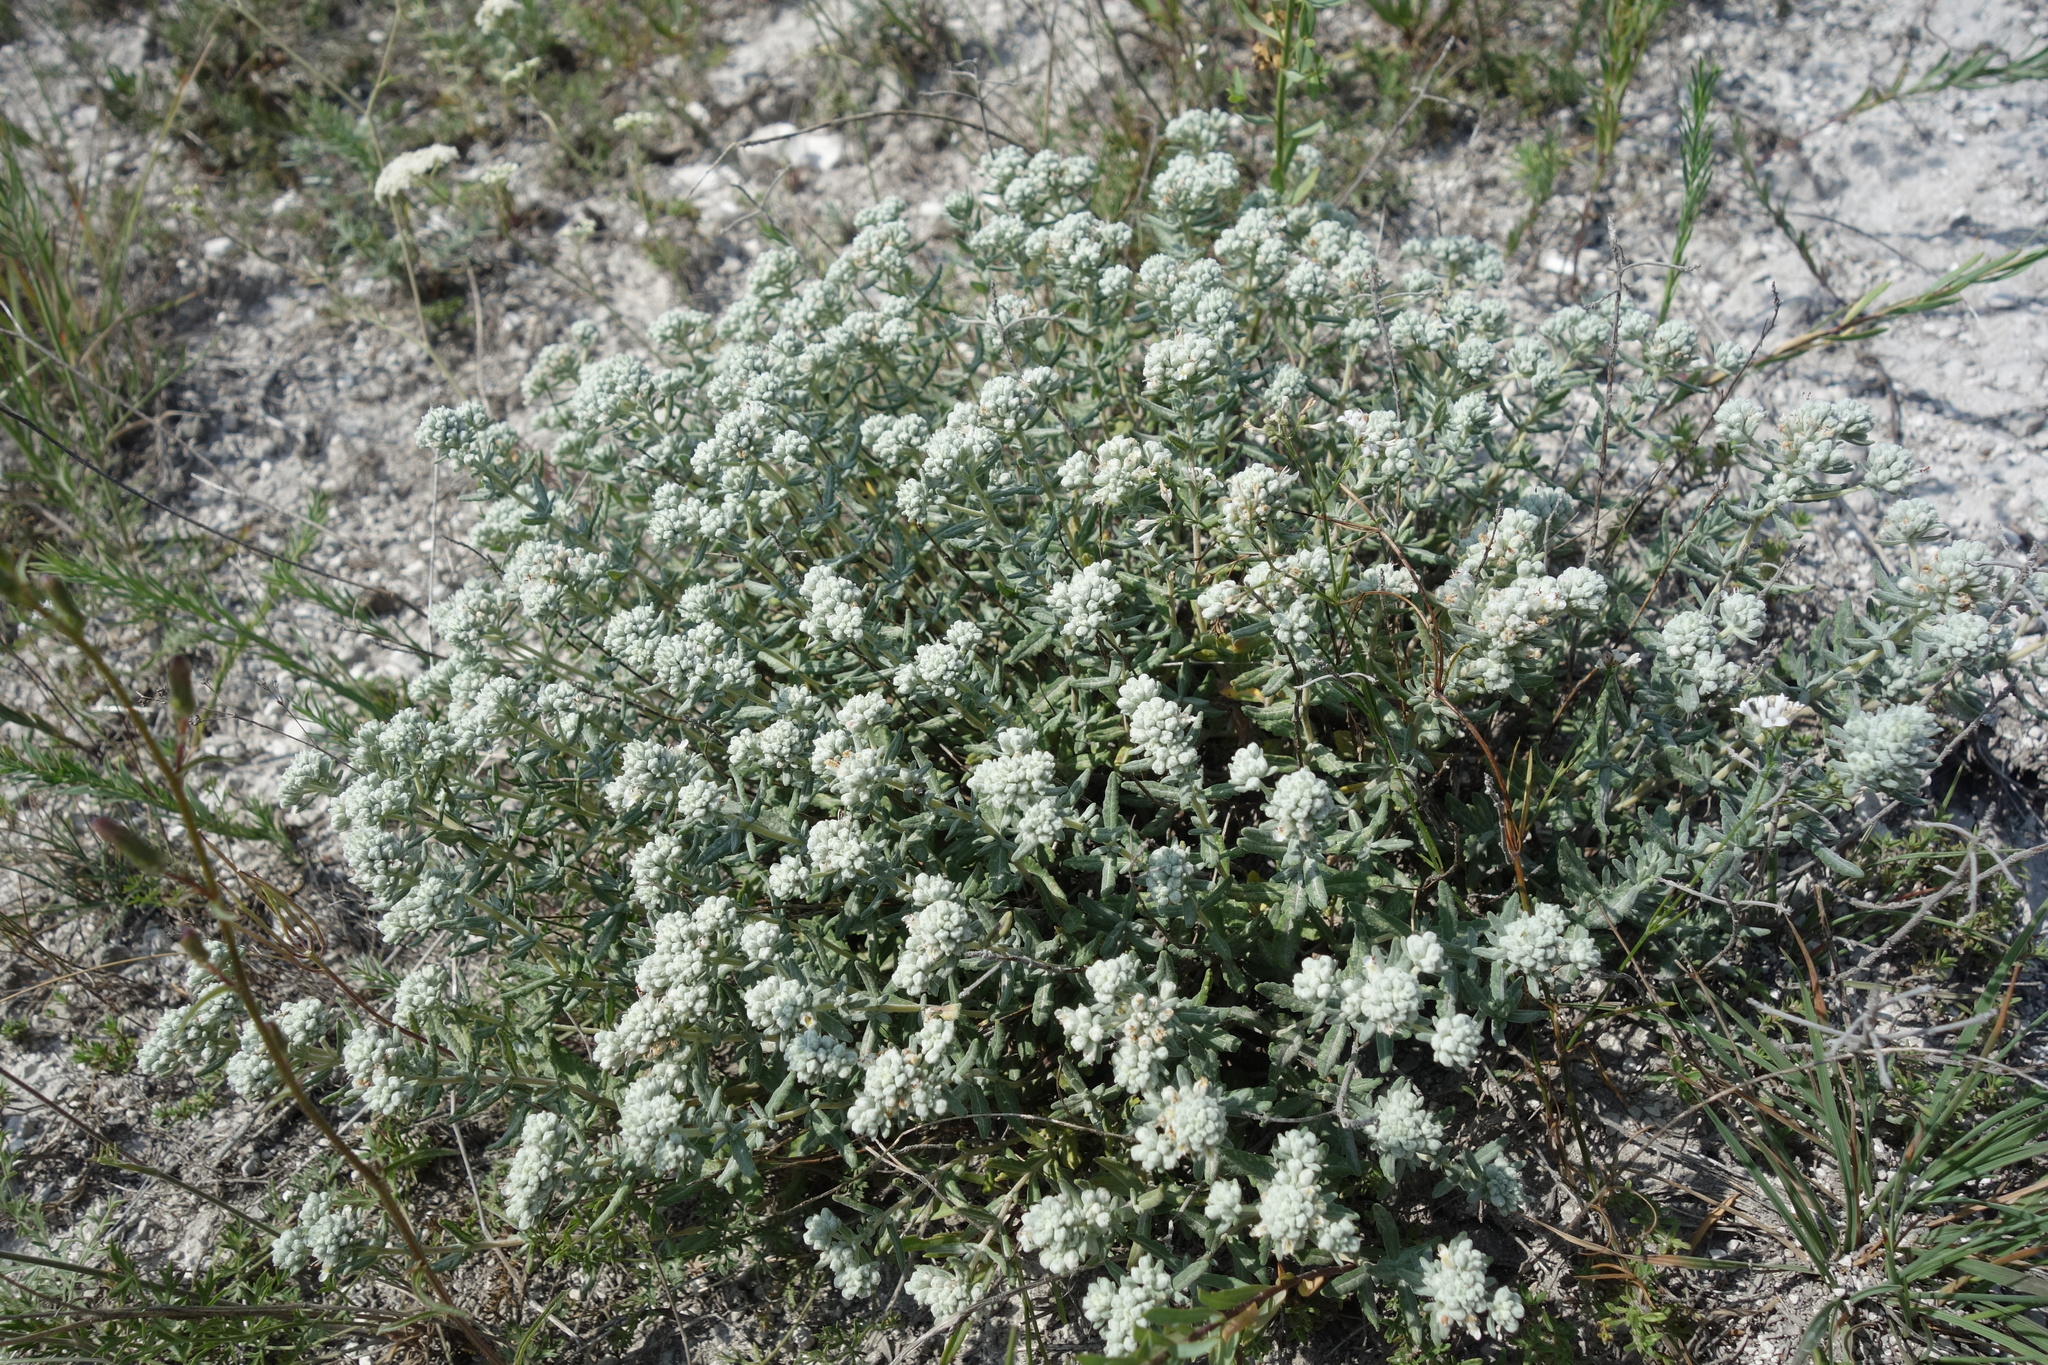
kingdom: Plantae
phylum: Tracheophyta
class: Magnoliopsida
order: Lamiales
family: Lamiaceae
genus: Teucrium
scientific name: Teucrium polium
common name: Poley
